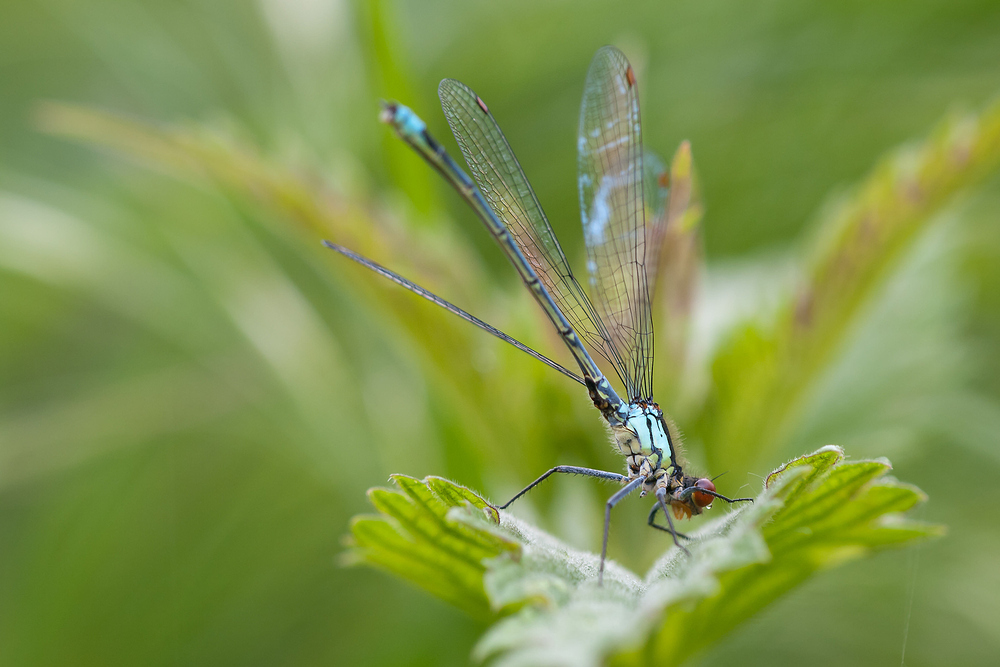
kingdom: Animalia
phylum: Arthropoda
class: Insecta
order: Odonata
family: Coenagrionidae
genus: Erythromma
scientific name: Erythromma najas
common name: Red-eyed damselfly
